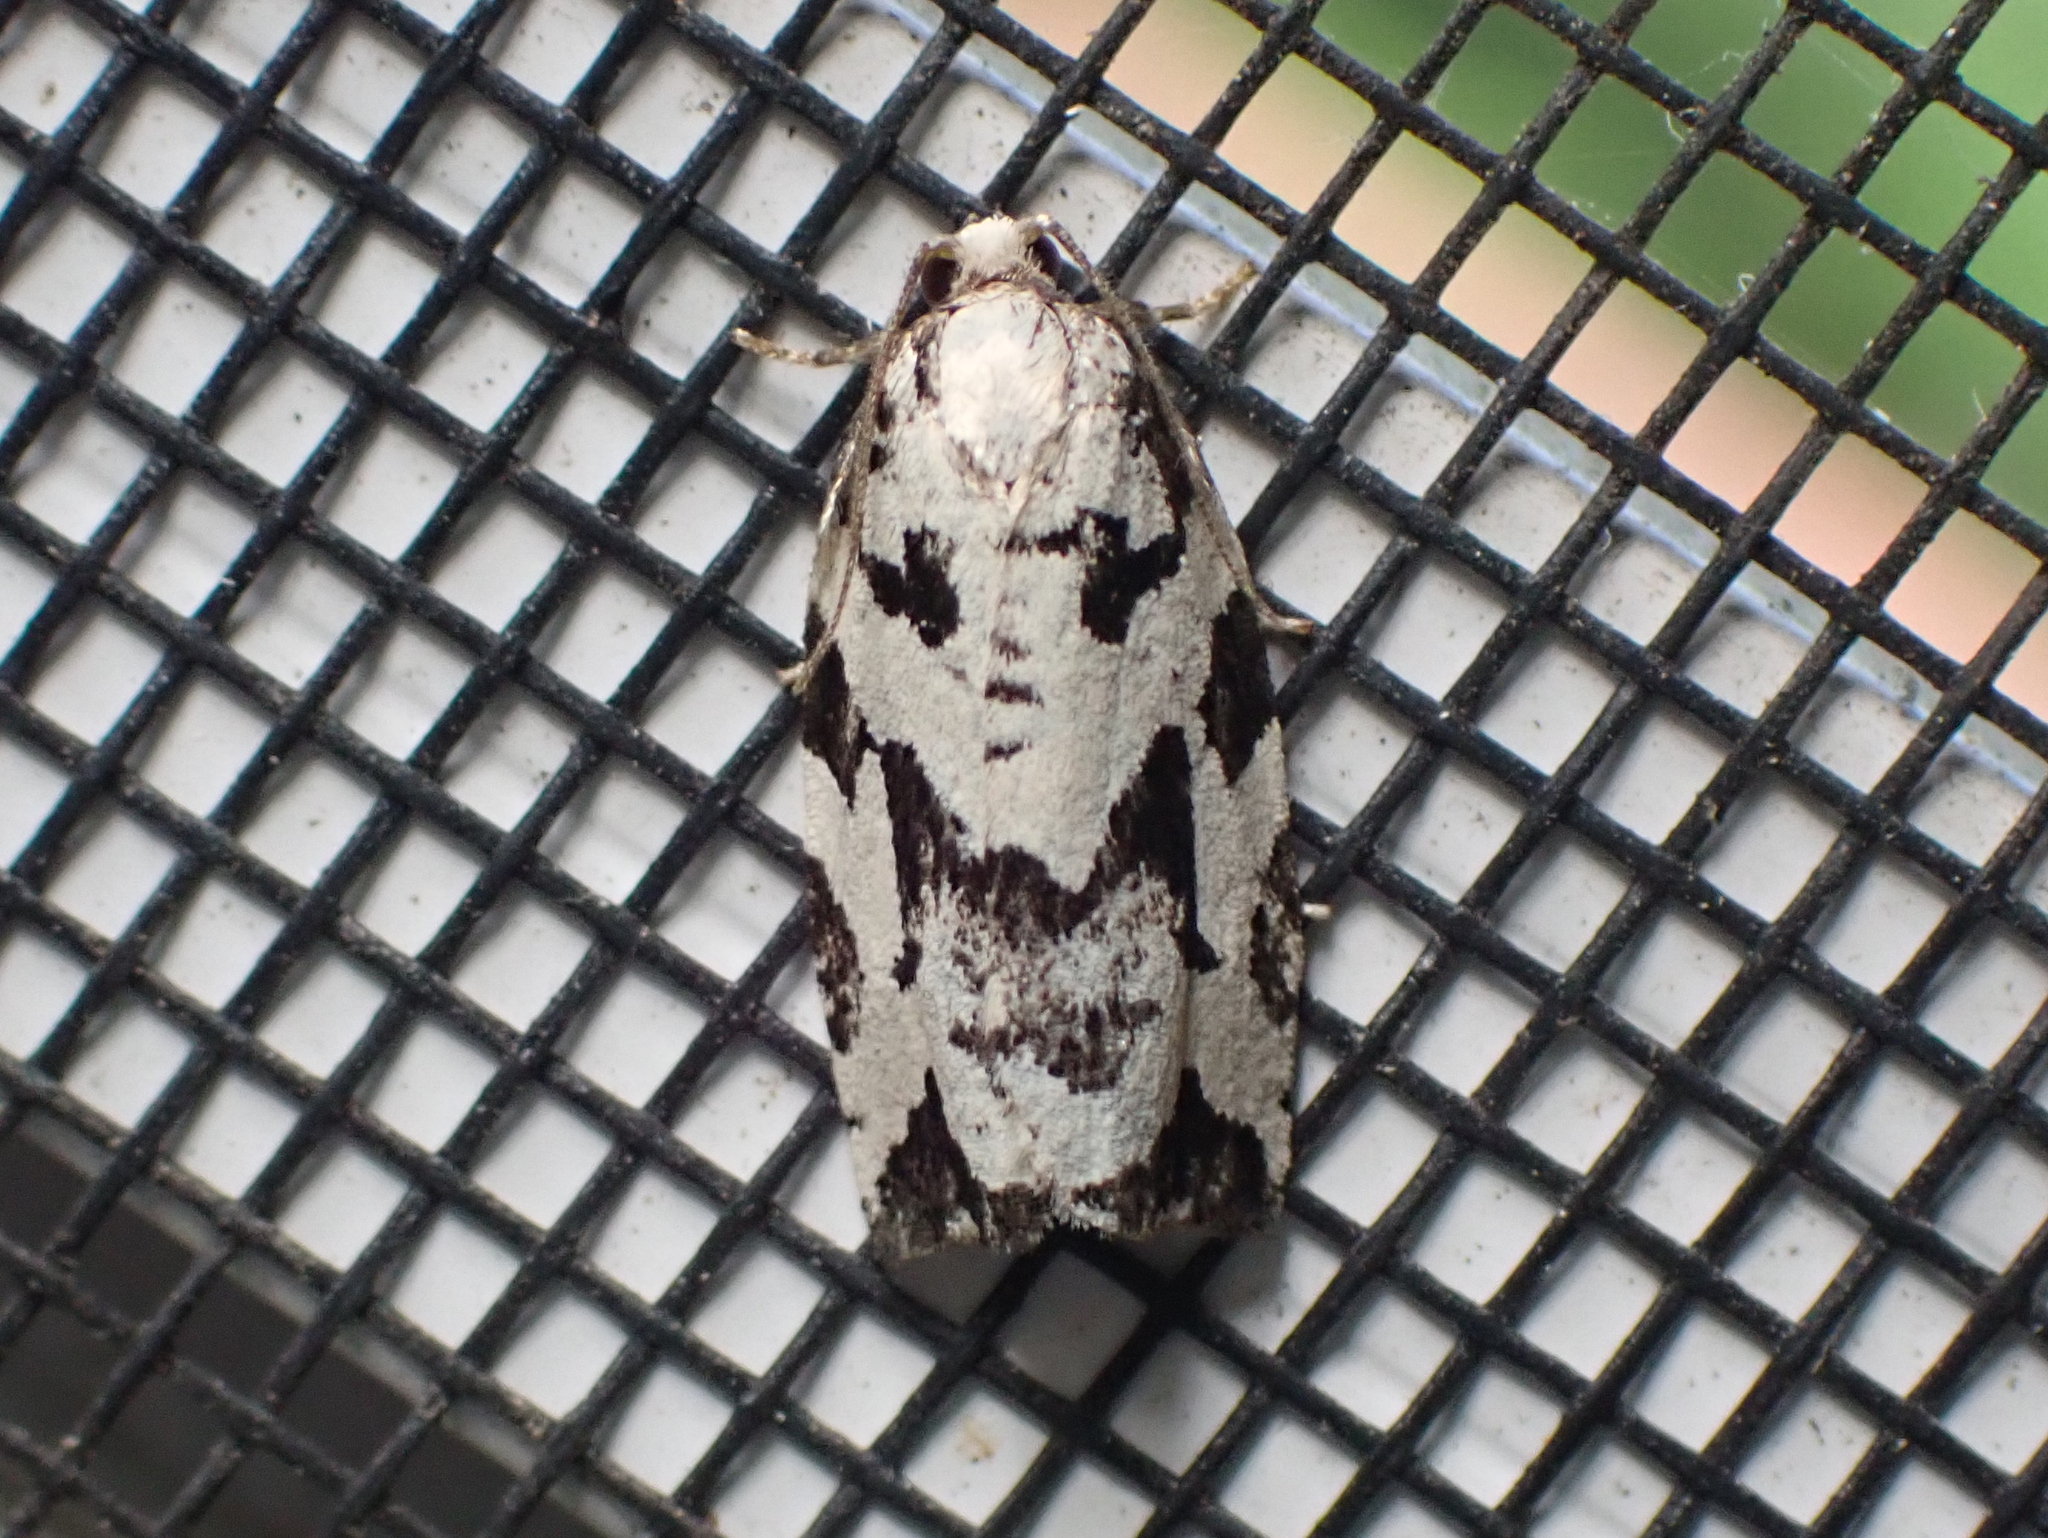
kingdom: Animalia
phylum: Arthropoda
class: Insecta
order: Lepidoptera
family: Tortricidae
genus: Archips
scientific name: Archips dissitana
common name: Boldly-marked archips moth
